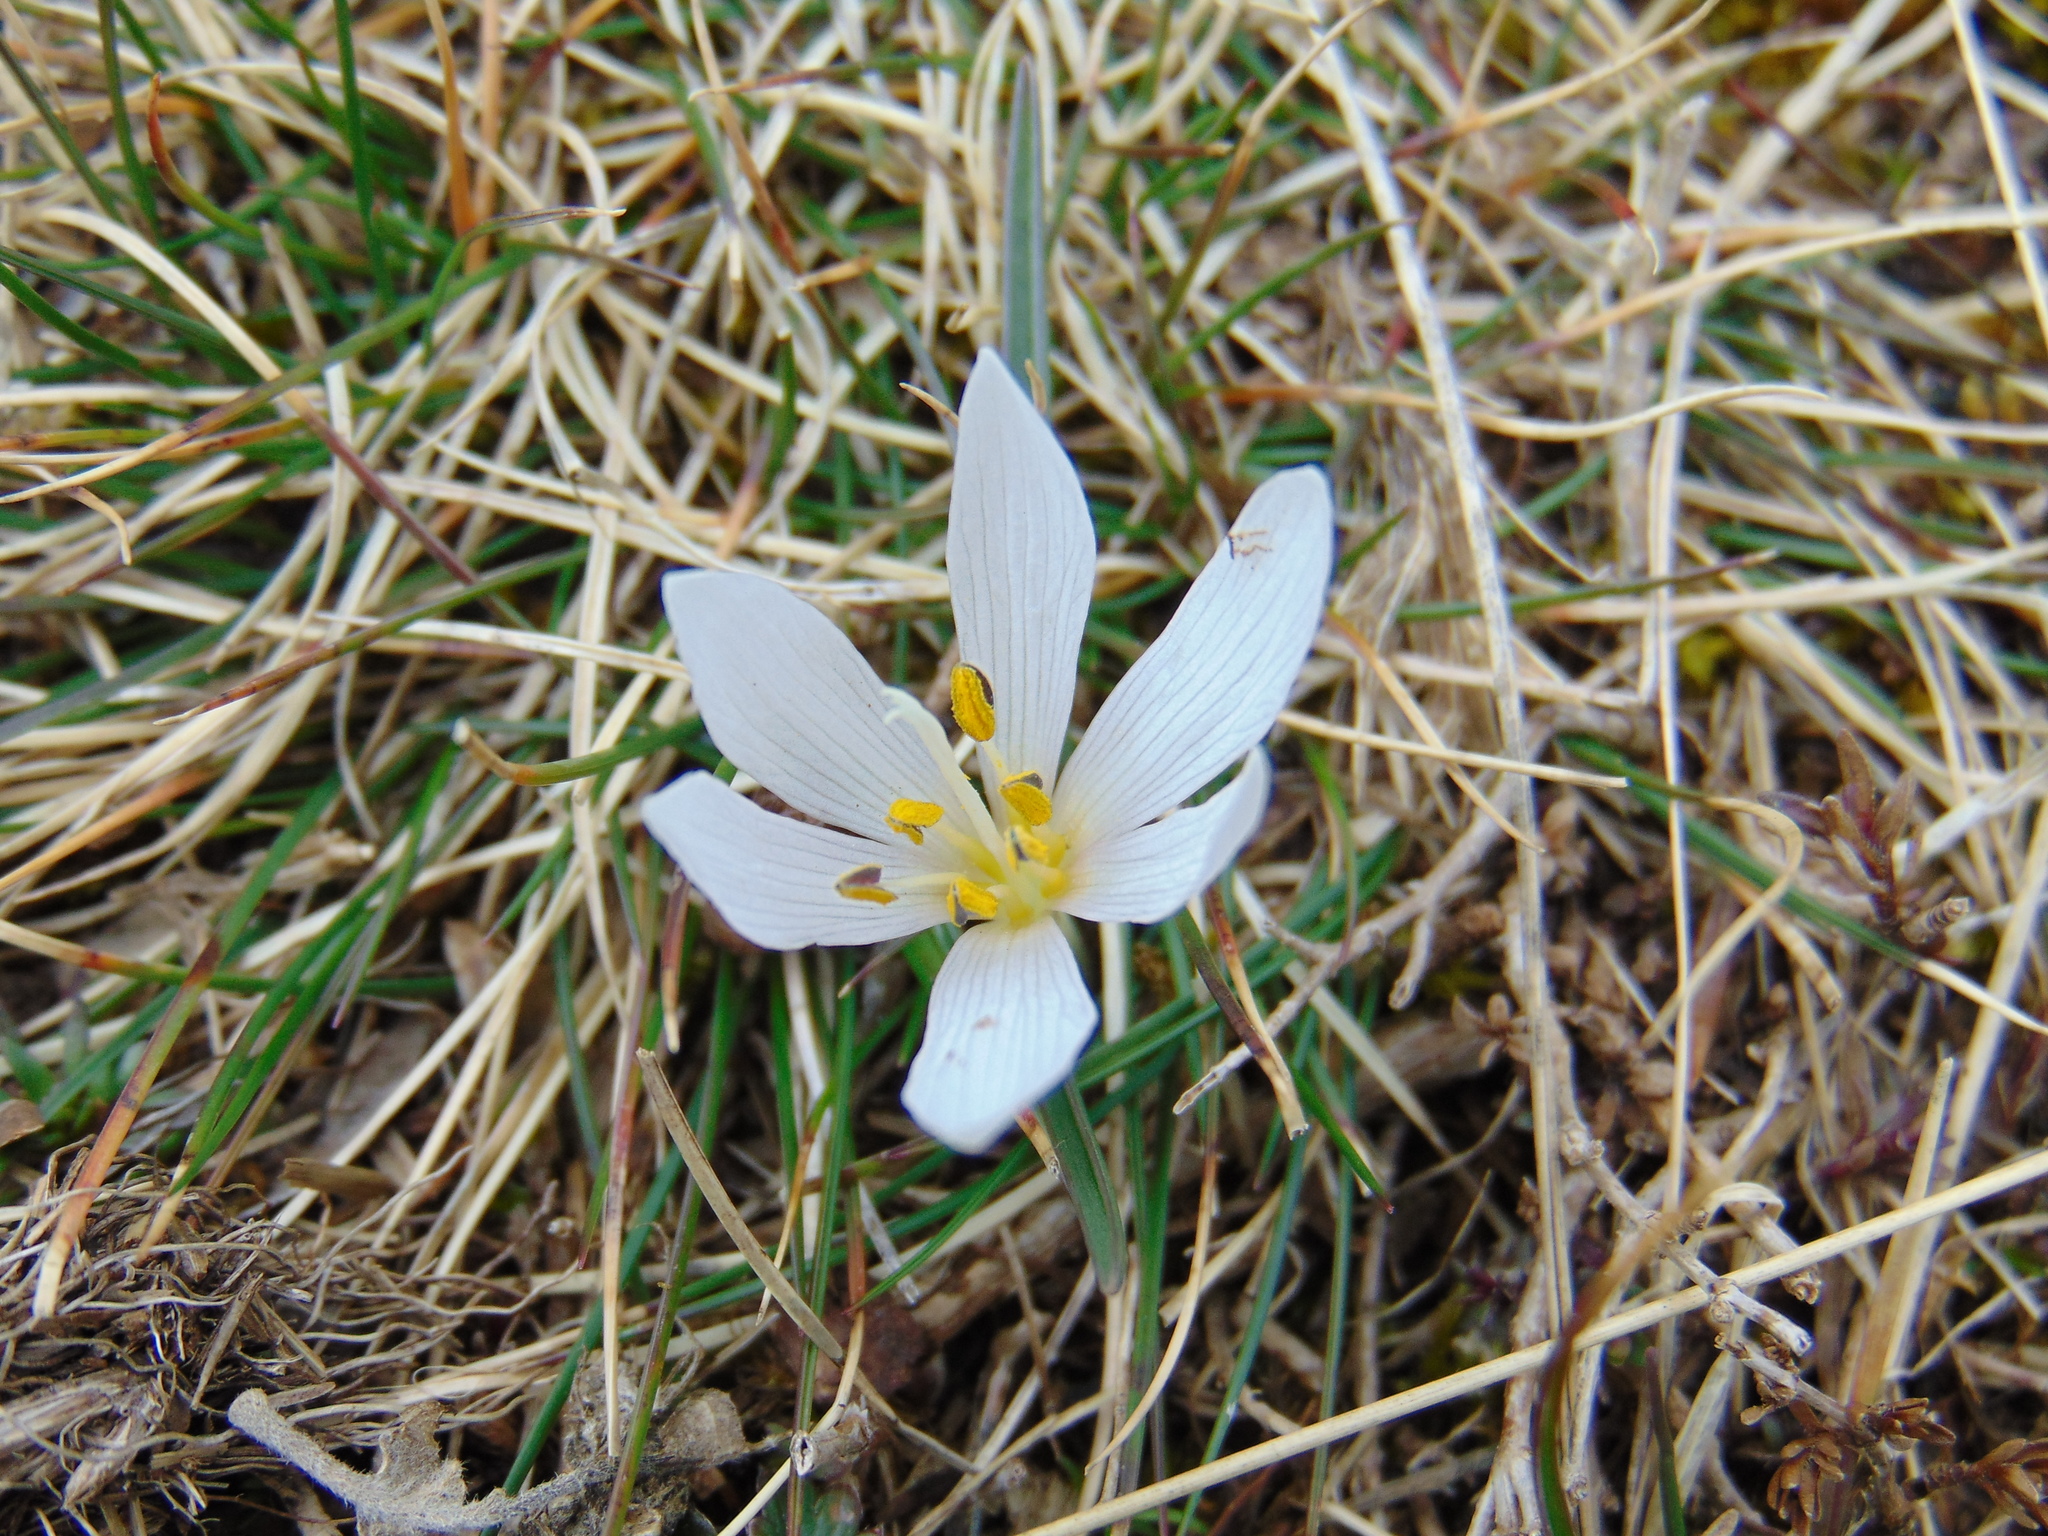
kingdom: Plantae
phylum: Tracheophyta
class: Liliopsida
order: Liliales
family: Colchicaceae
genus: Colchicum
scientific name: Colchicum hungaricum
